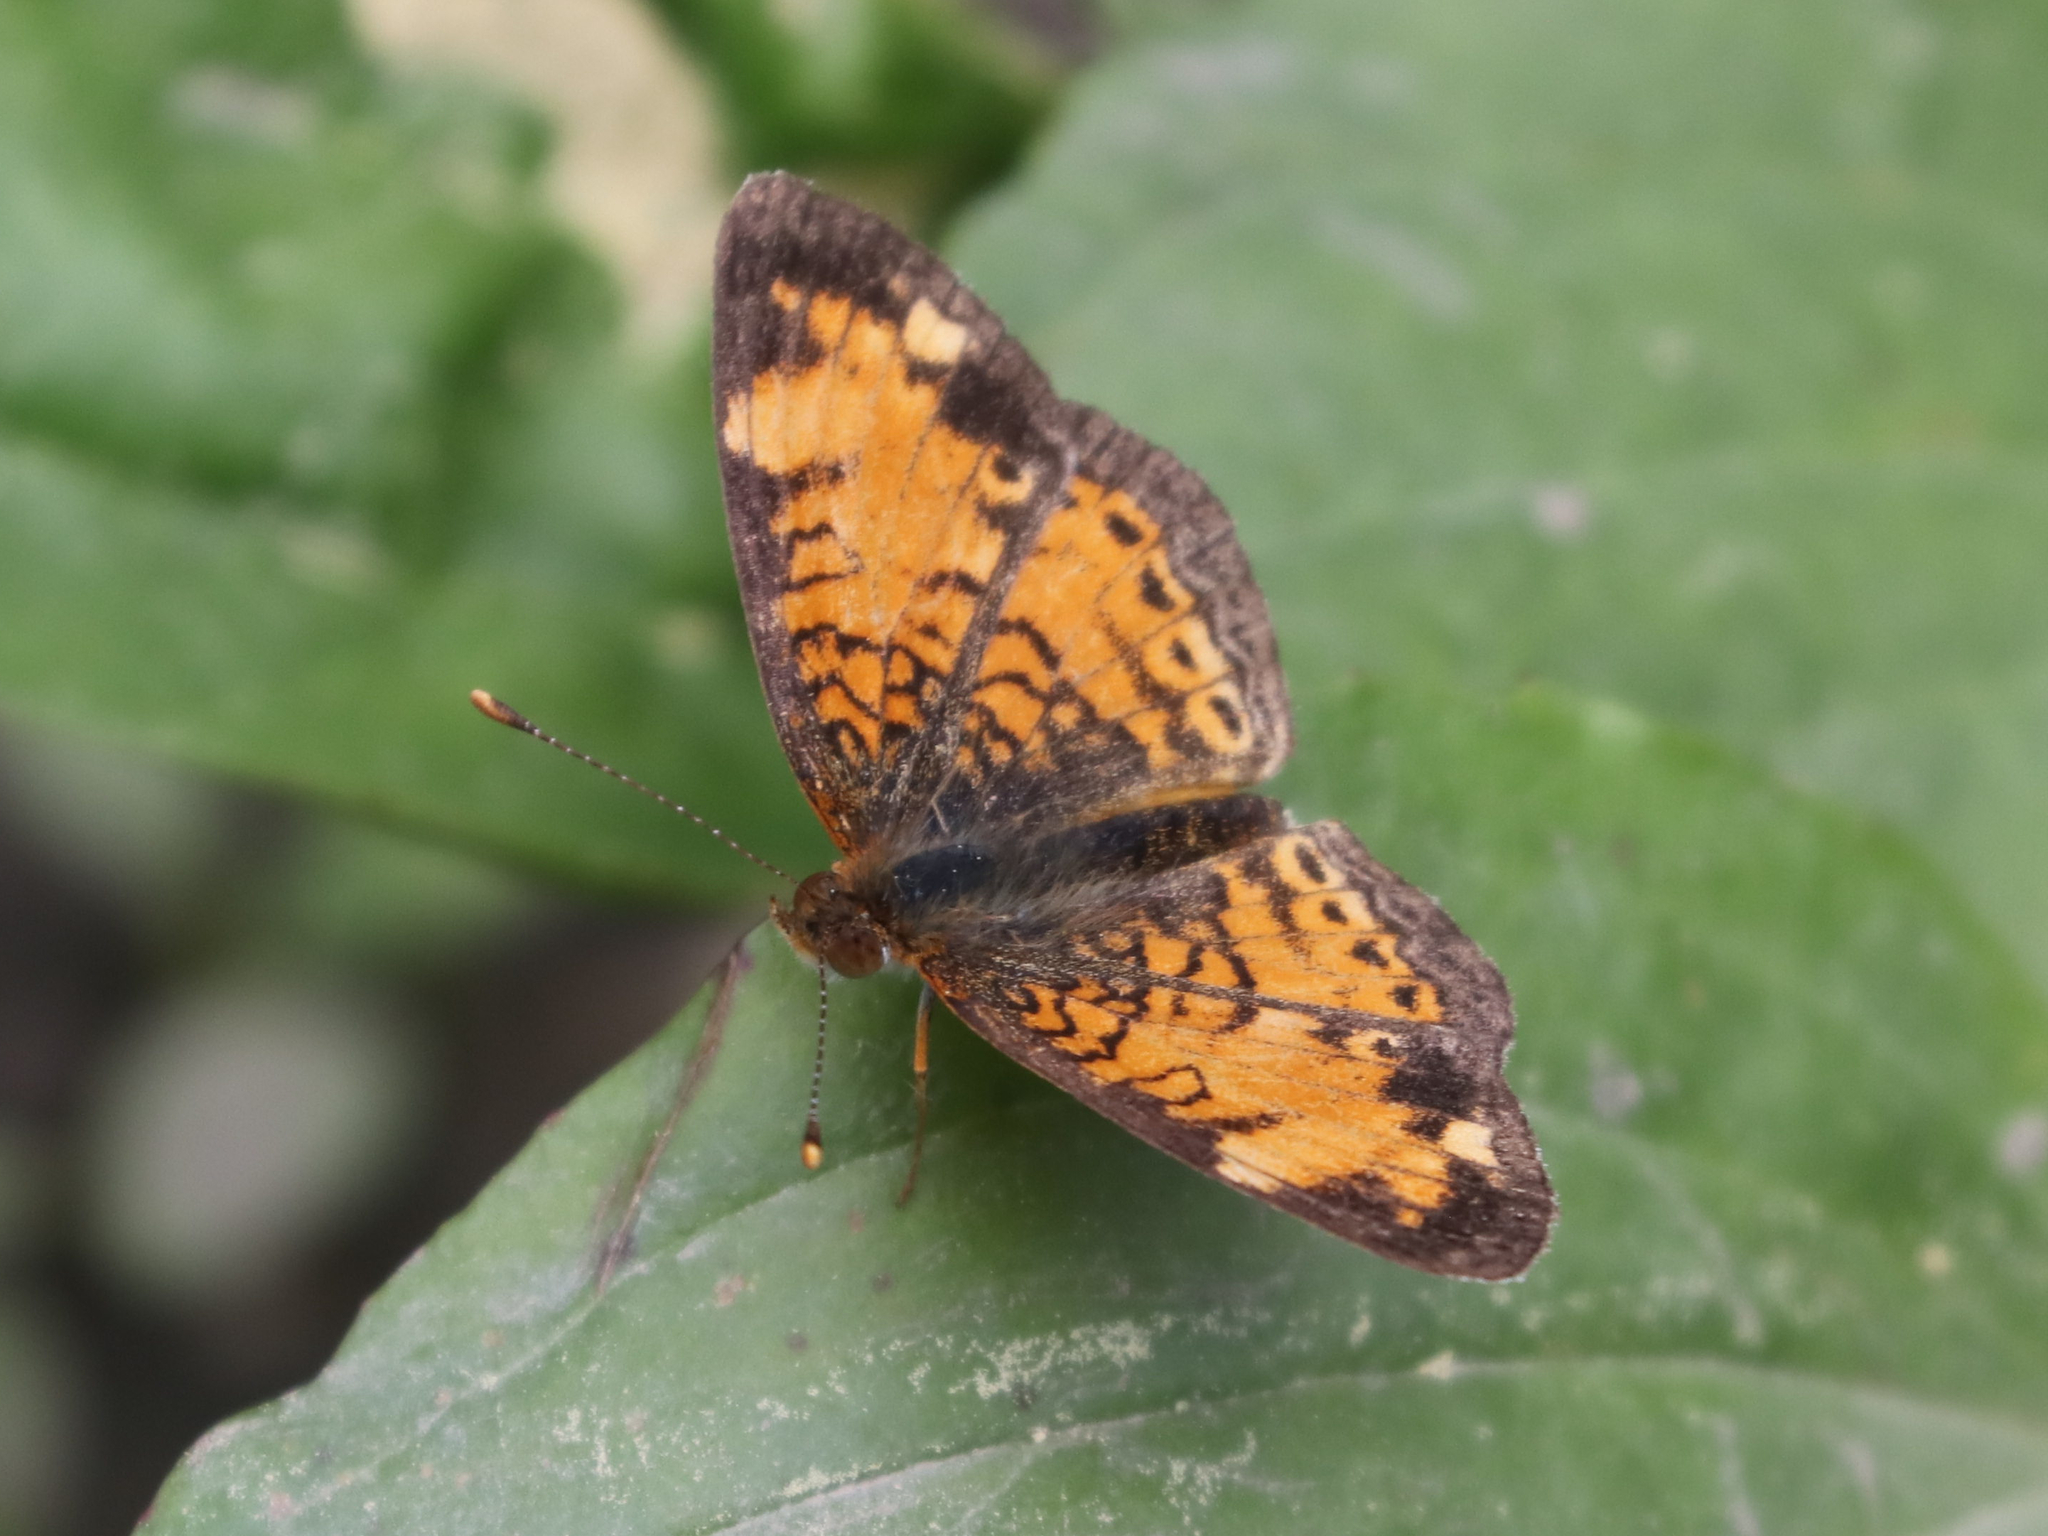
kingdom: Animalia
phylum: Arthropoda
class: Insecta
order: Lepidoptera
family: Nymphalidae
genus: Phyciodes
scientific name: Phyciodes tharos
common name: Pearl crescent
